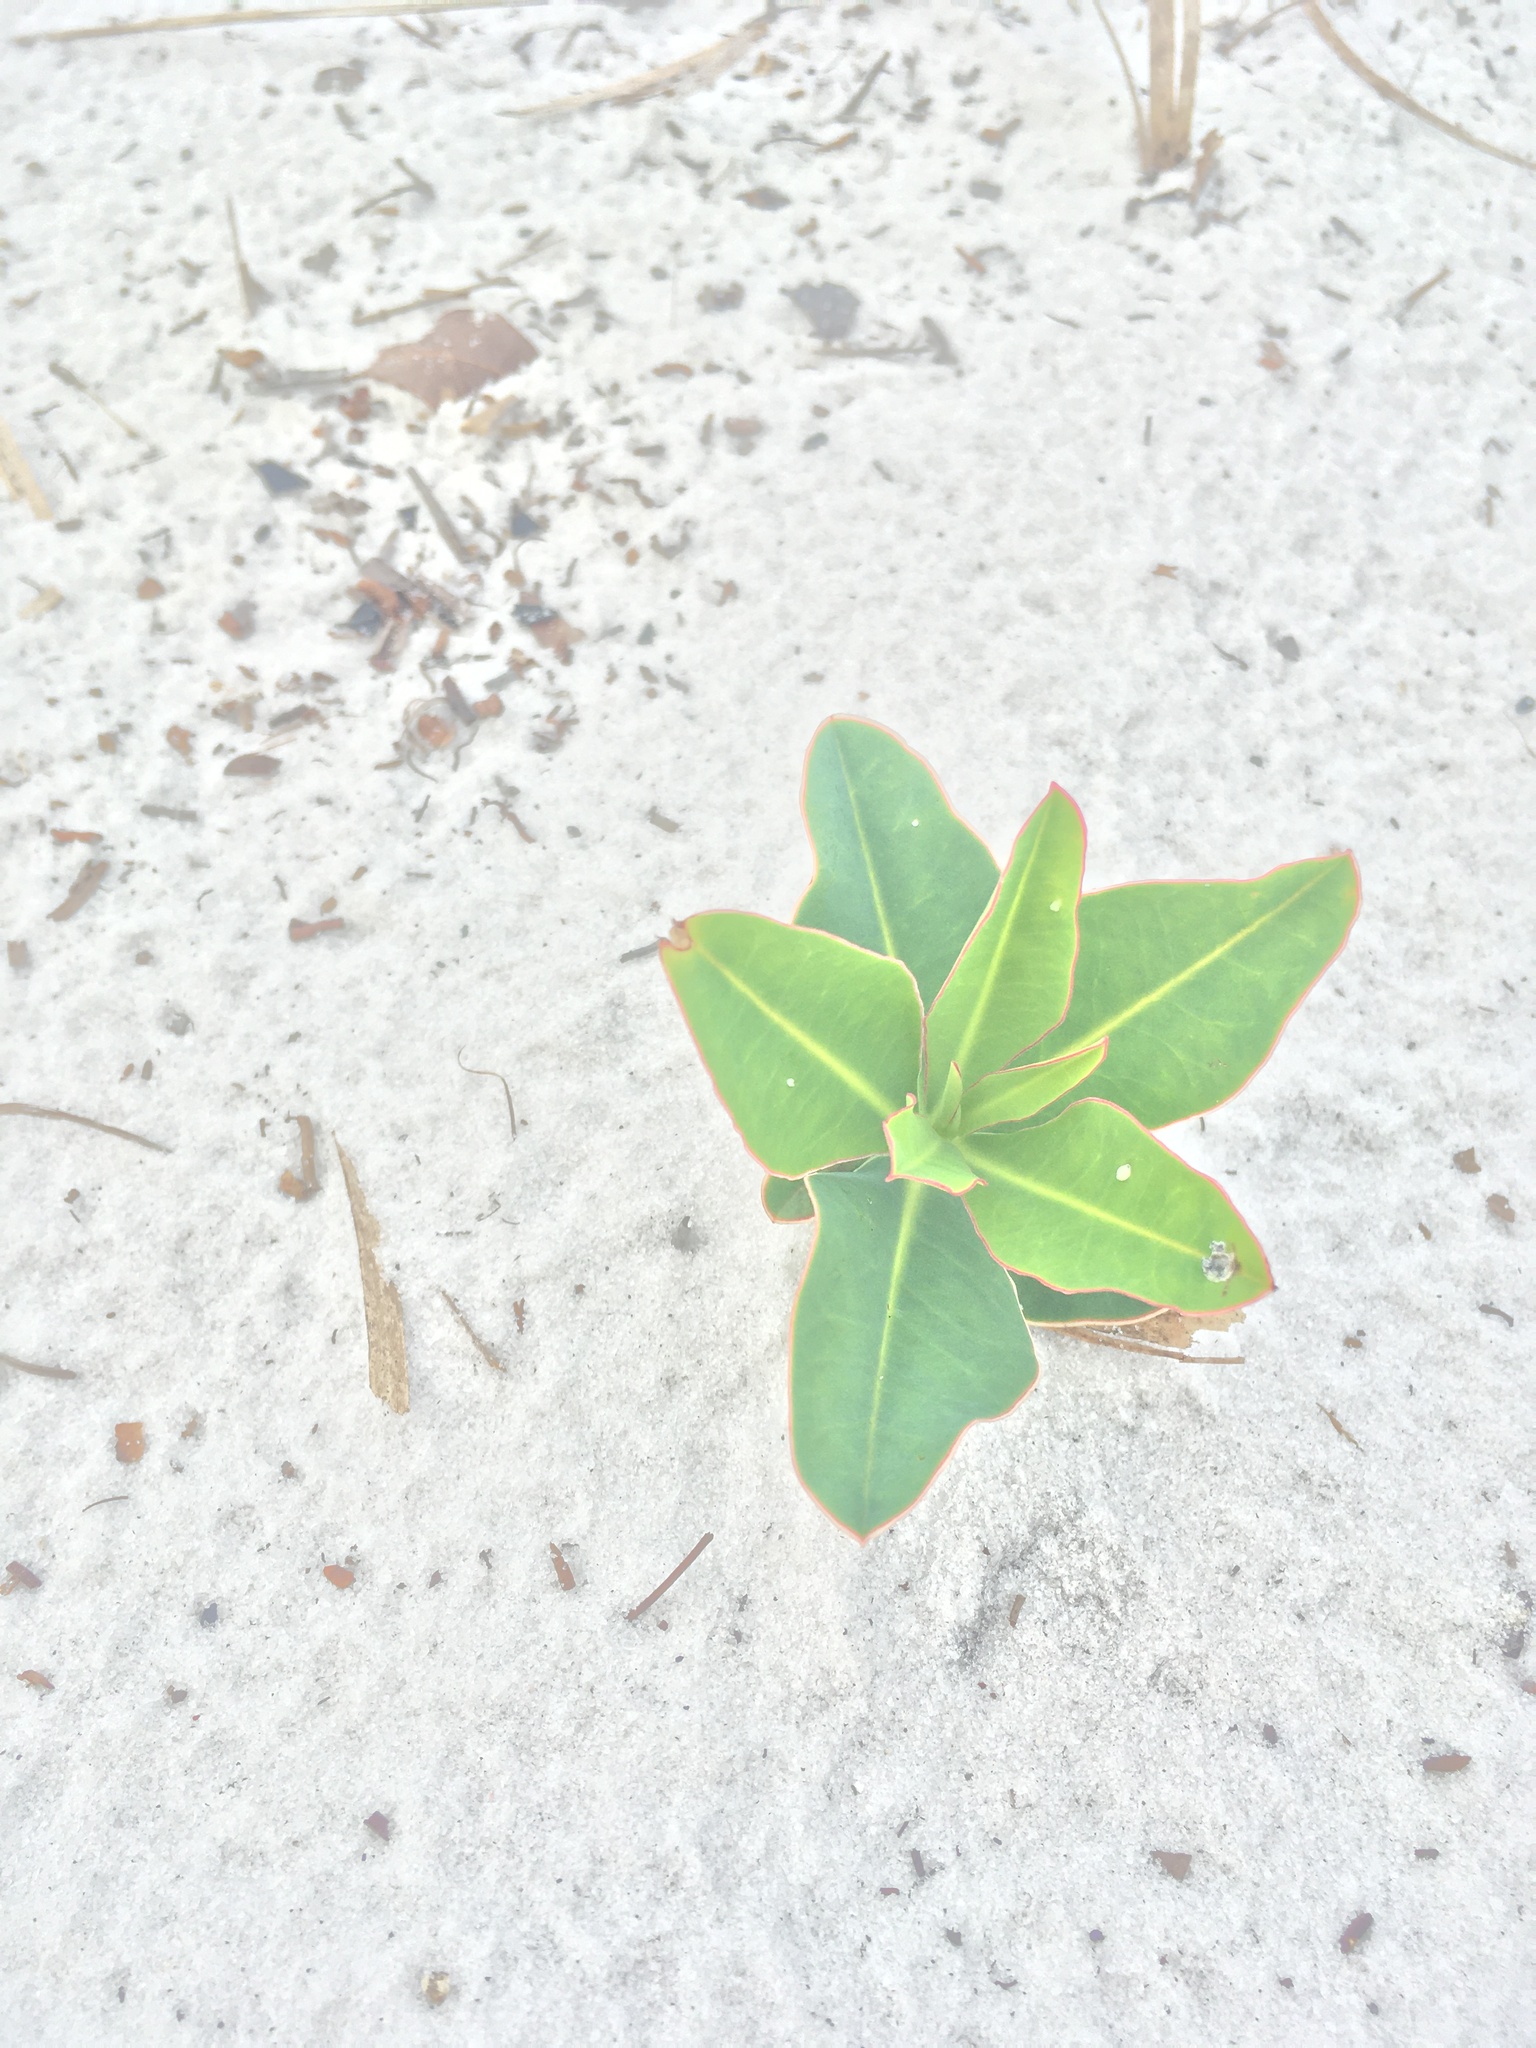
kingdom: Plantae
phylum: Tracheophyta
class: Magnoliopsida
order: Malpighiales
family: Euphorbiaceae
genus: Euphorbia
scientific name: Euphorbia telephioides
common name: Telephus spurge
